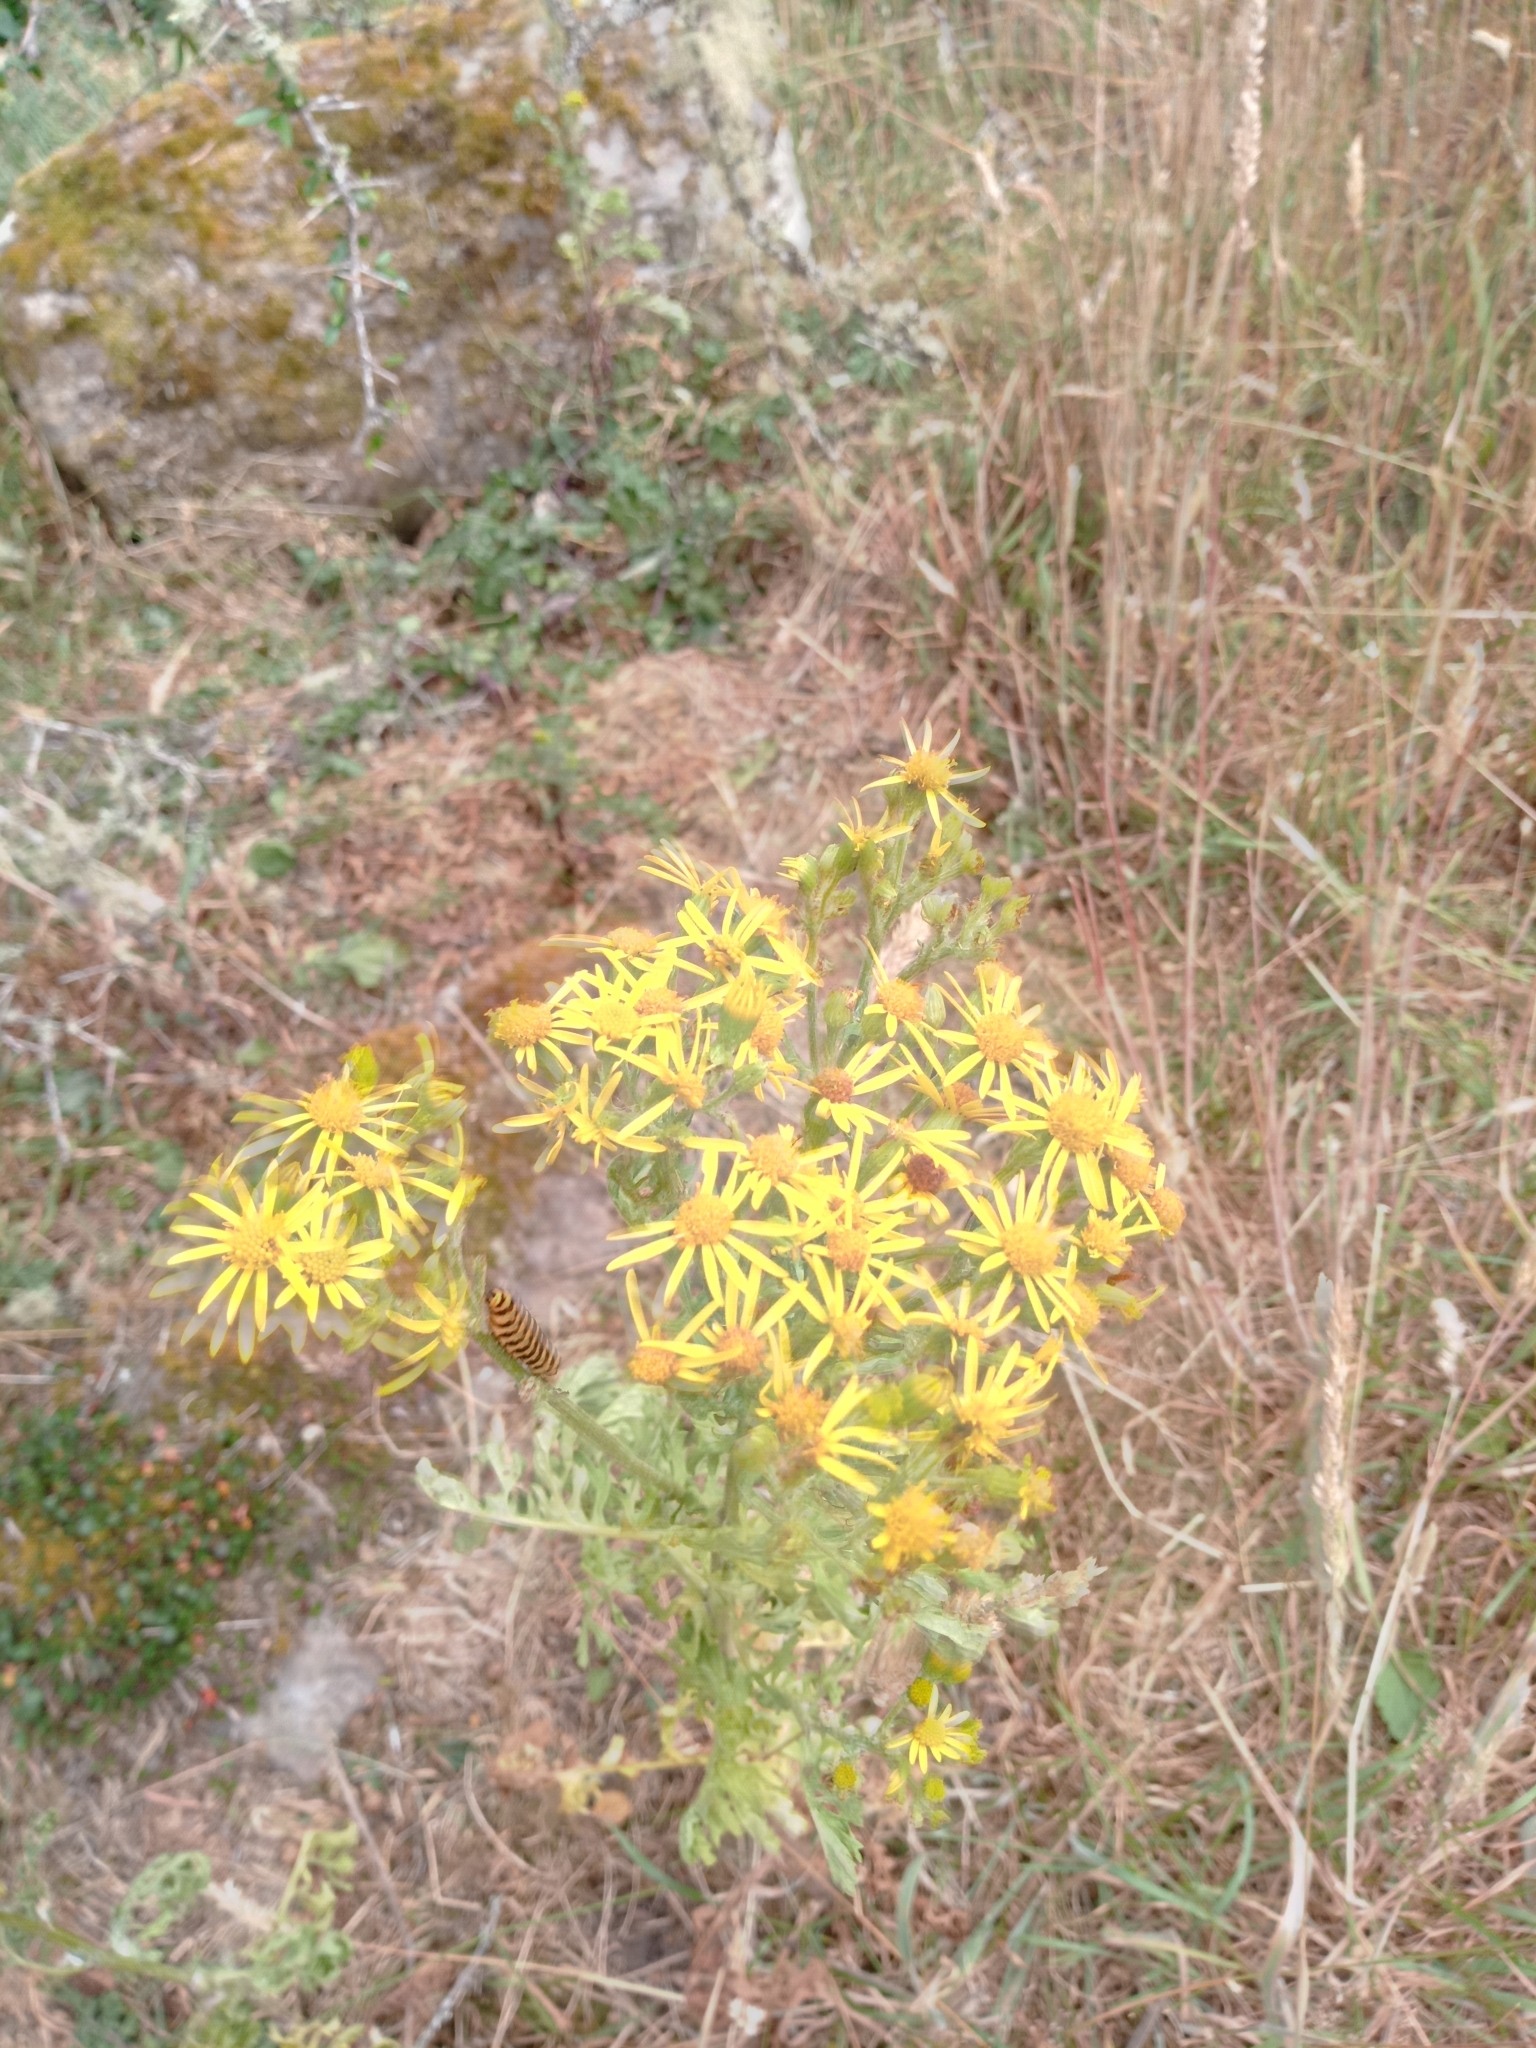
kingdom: Plantae
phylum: Tracheophyta
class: Magnoliopsida
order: Asterales
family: Asteraceae
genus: Jacobaea
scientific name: Jacobaea vulgaris
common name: Stinking willie
